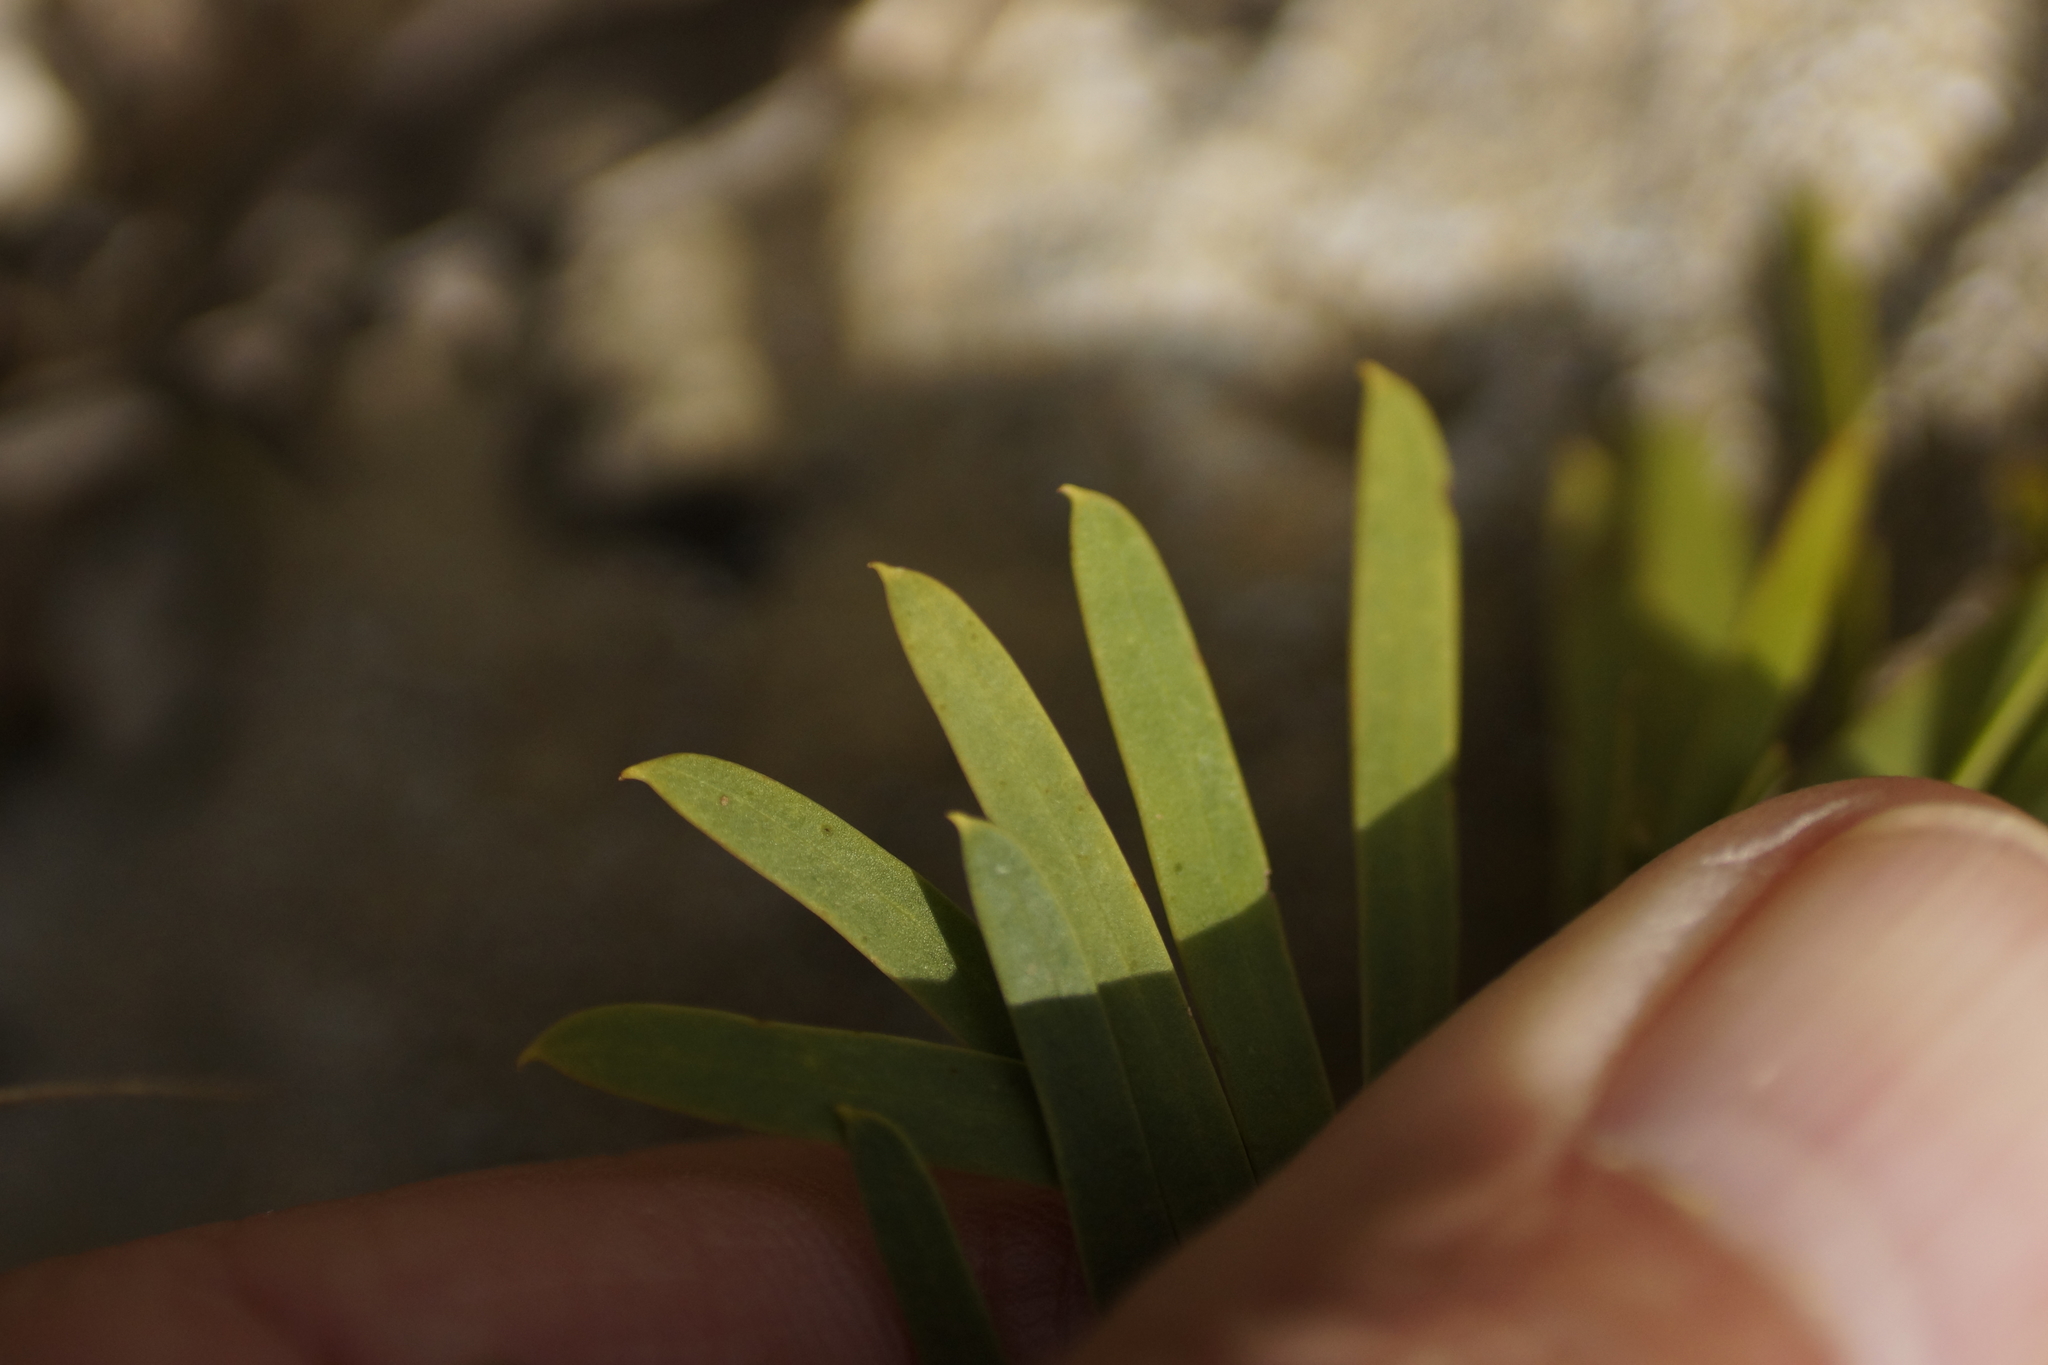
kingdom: Plantae
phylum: Tracheophyta
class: Magnoliopsida
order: Fabales
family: Fabaceae
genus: Acacia
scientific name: Acacia uncifolia
